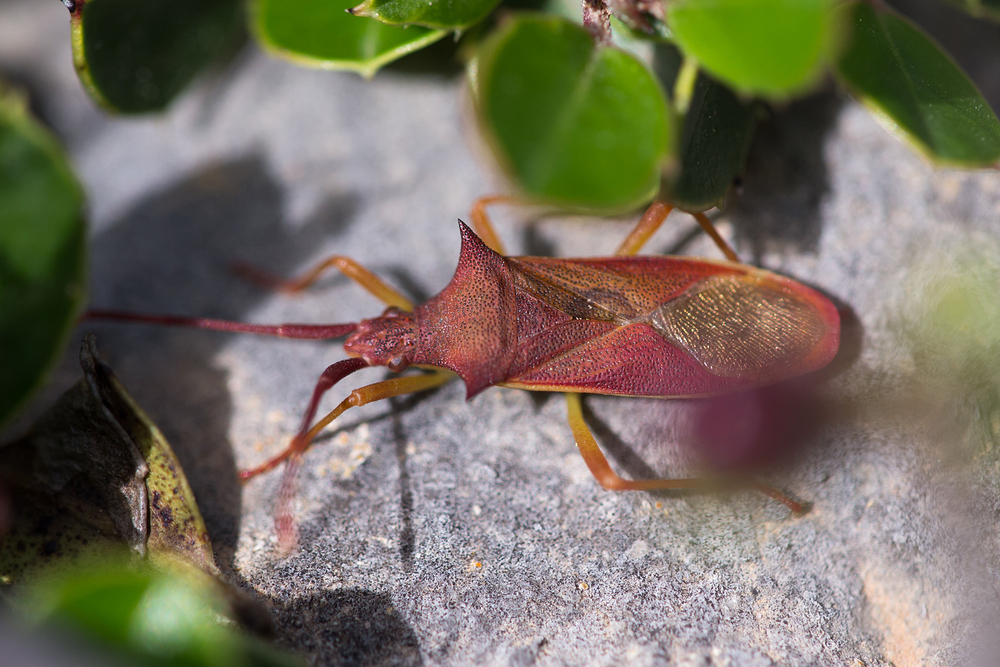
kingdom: Animalia
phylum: Arthropoda
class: Insecta
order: Hemiptera
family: Coreidae
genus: Gonocerus
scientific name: Gonocerus insidiator
